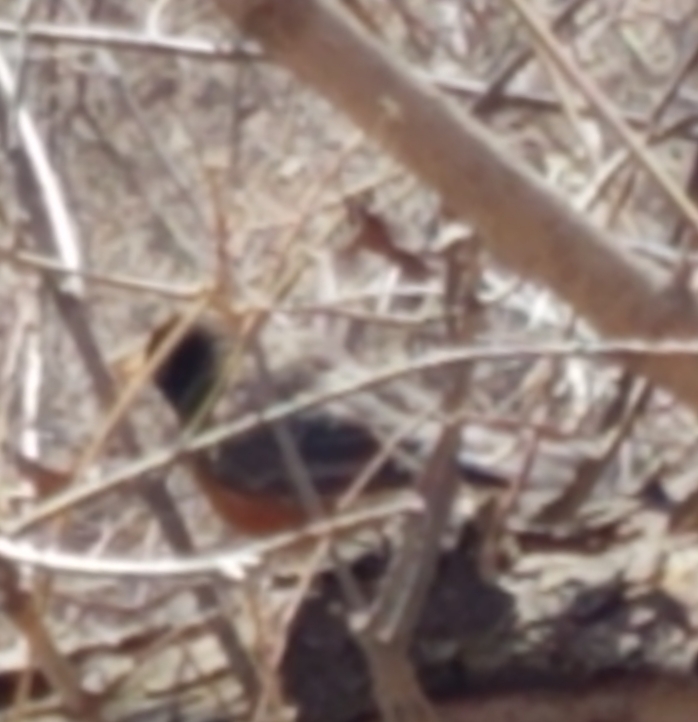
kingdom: Animalia
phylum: Chordata
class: Aves
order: Passeriformes
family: Turdidae
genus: Turdus
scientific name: Turdus migratorius
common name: American robin
